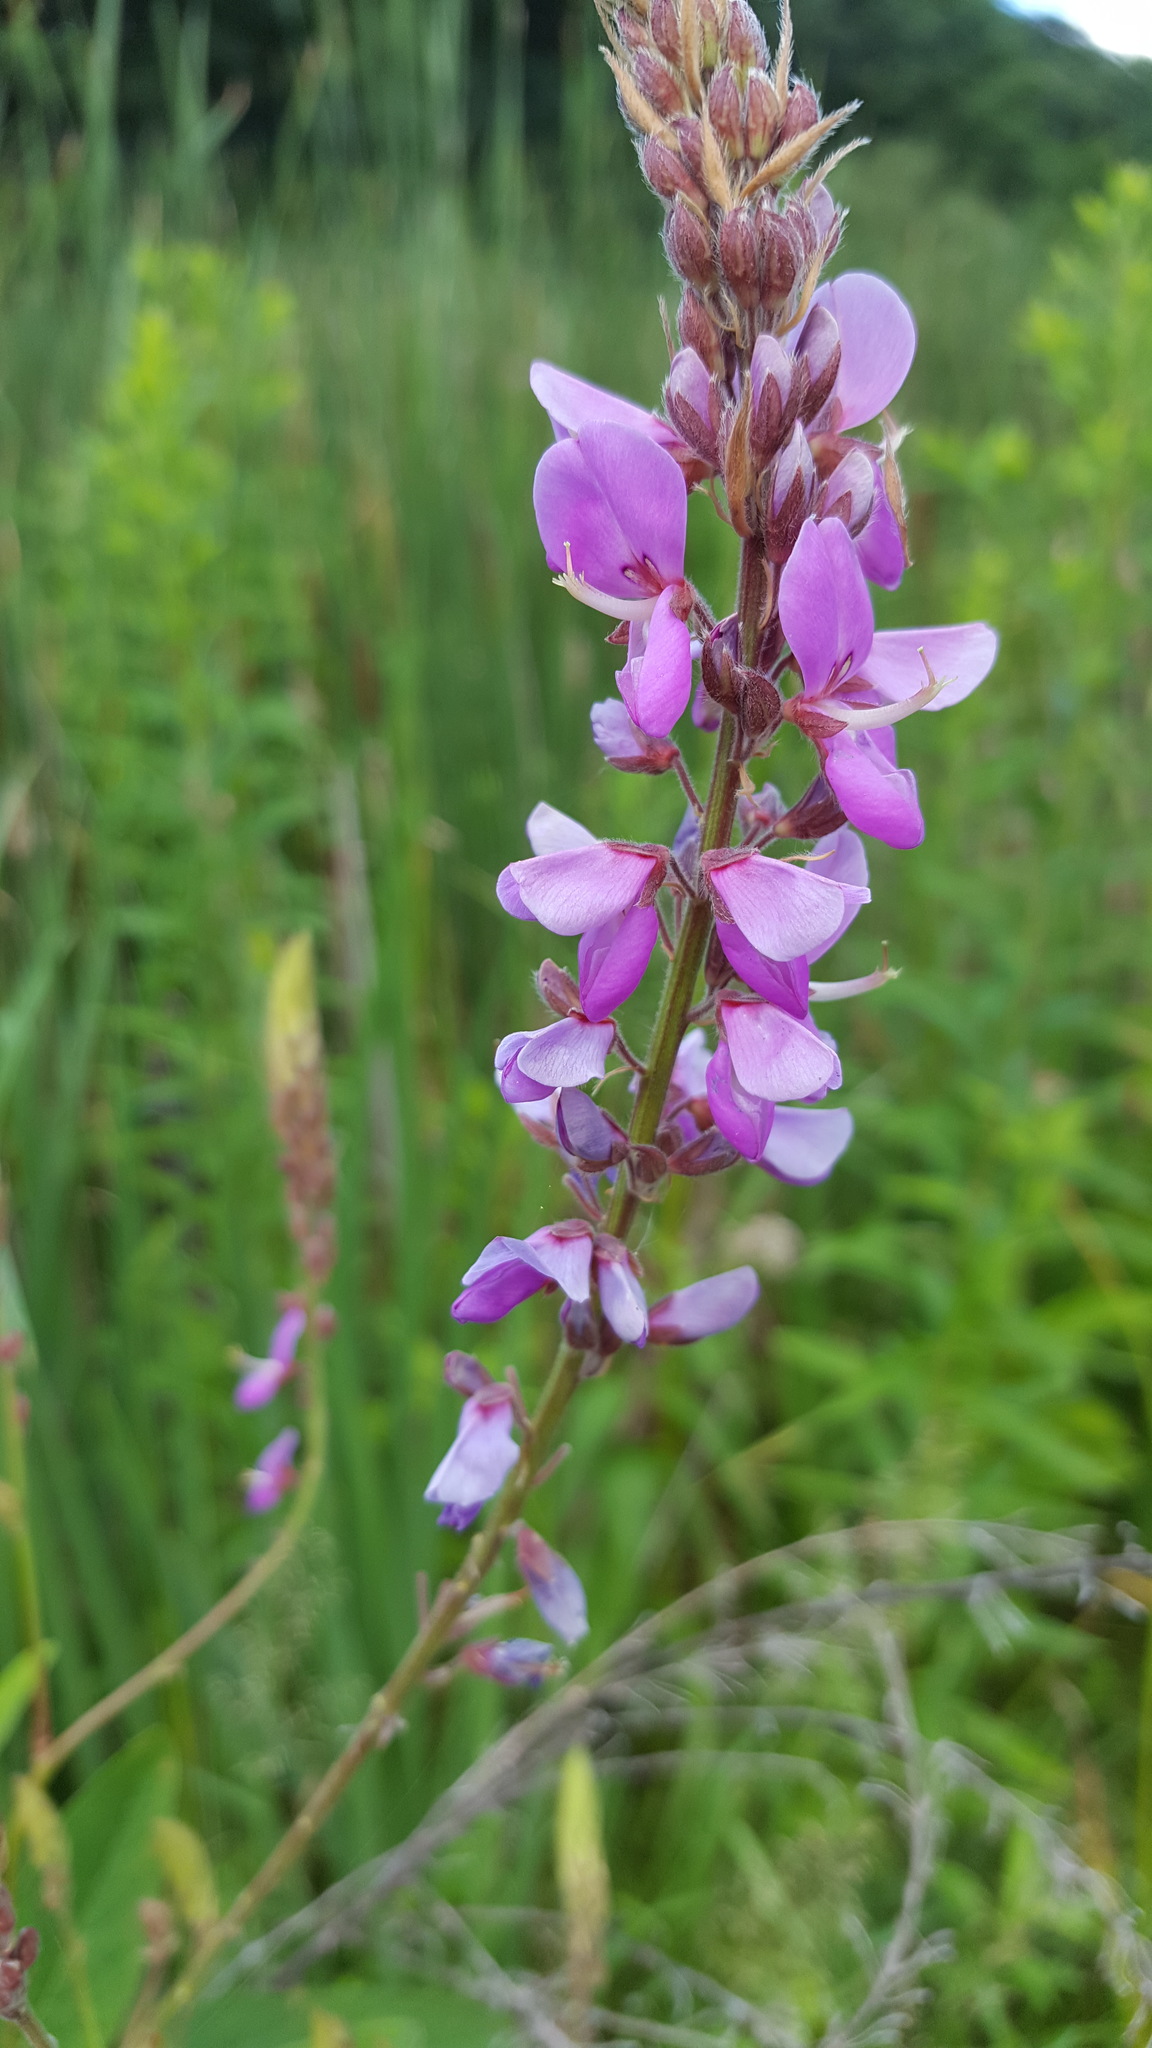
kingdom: Plantae
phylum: Tracheophyta
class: Magnoliopsida
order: Fabales
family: Fabaceae
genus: Desmodium
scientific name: Desmodium canadense
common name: Canada tick-trefoil
